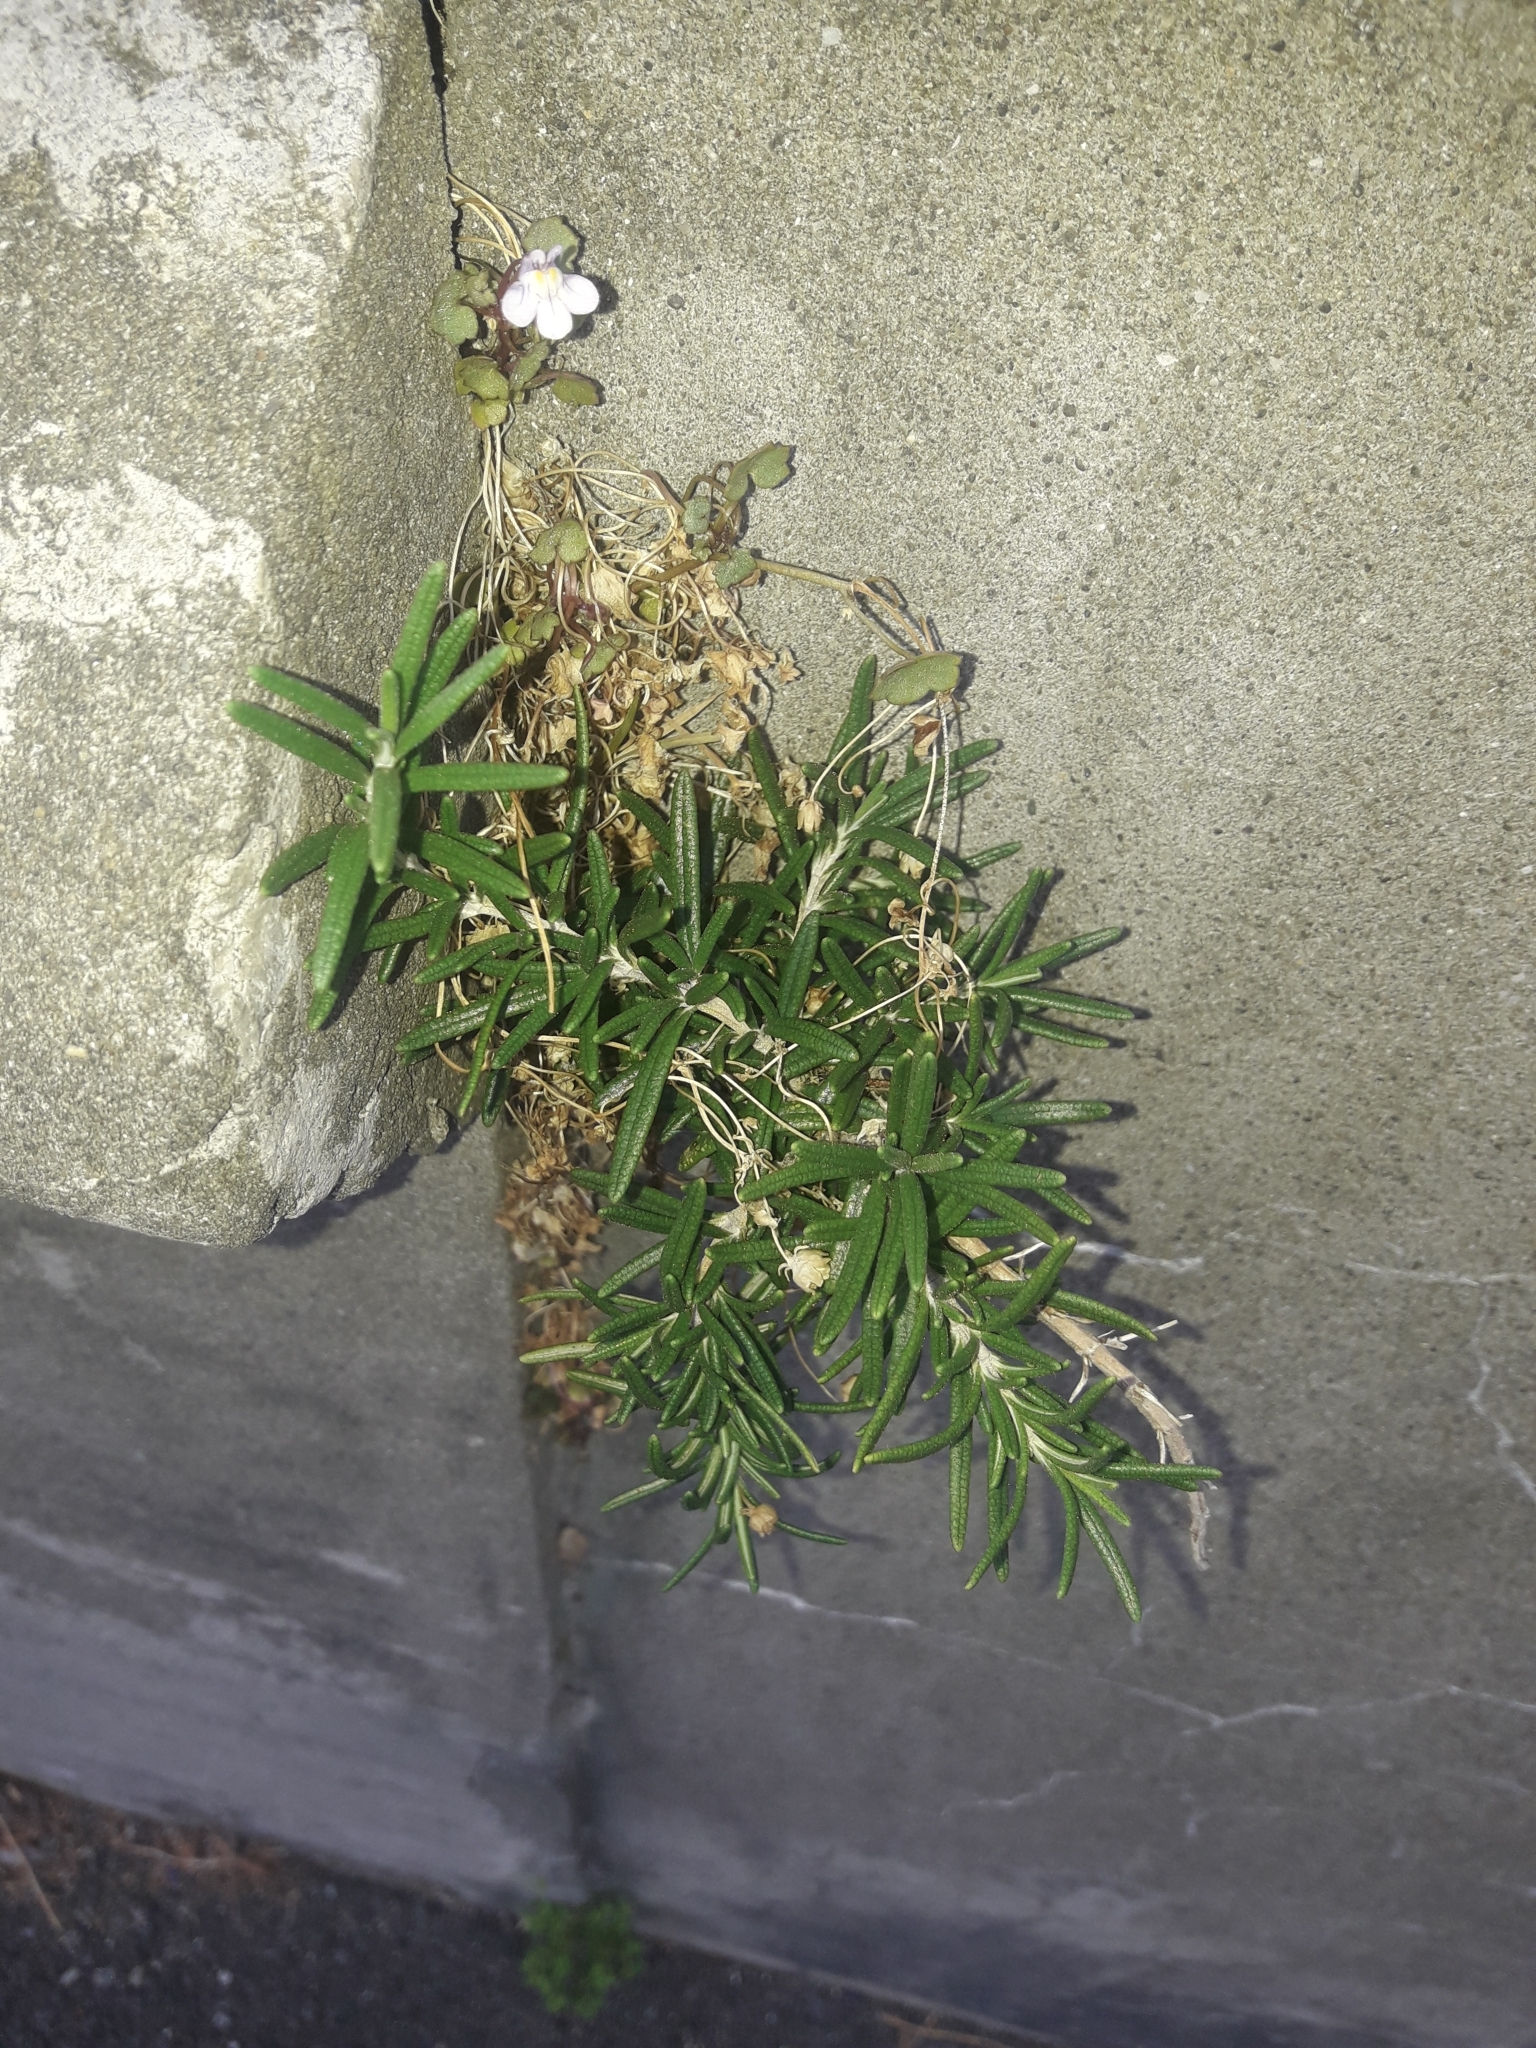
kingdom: Plantae
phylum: Tracheophyta
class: Magnoliopsida
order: Lamiales
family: Lamiaceae
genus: Salvia
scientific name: Salvia rosmarinus
